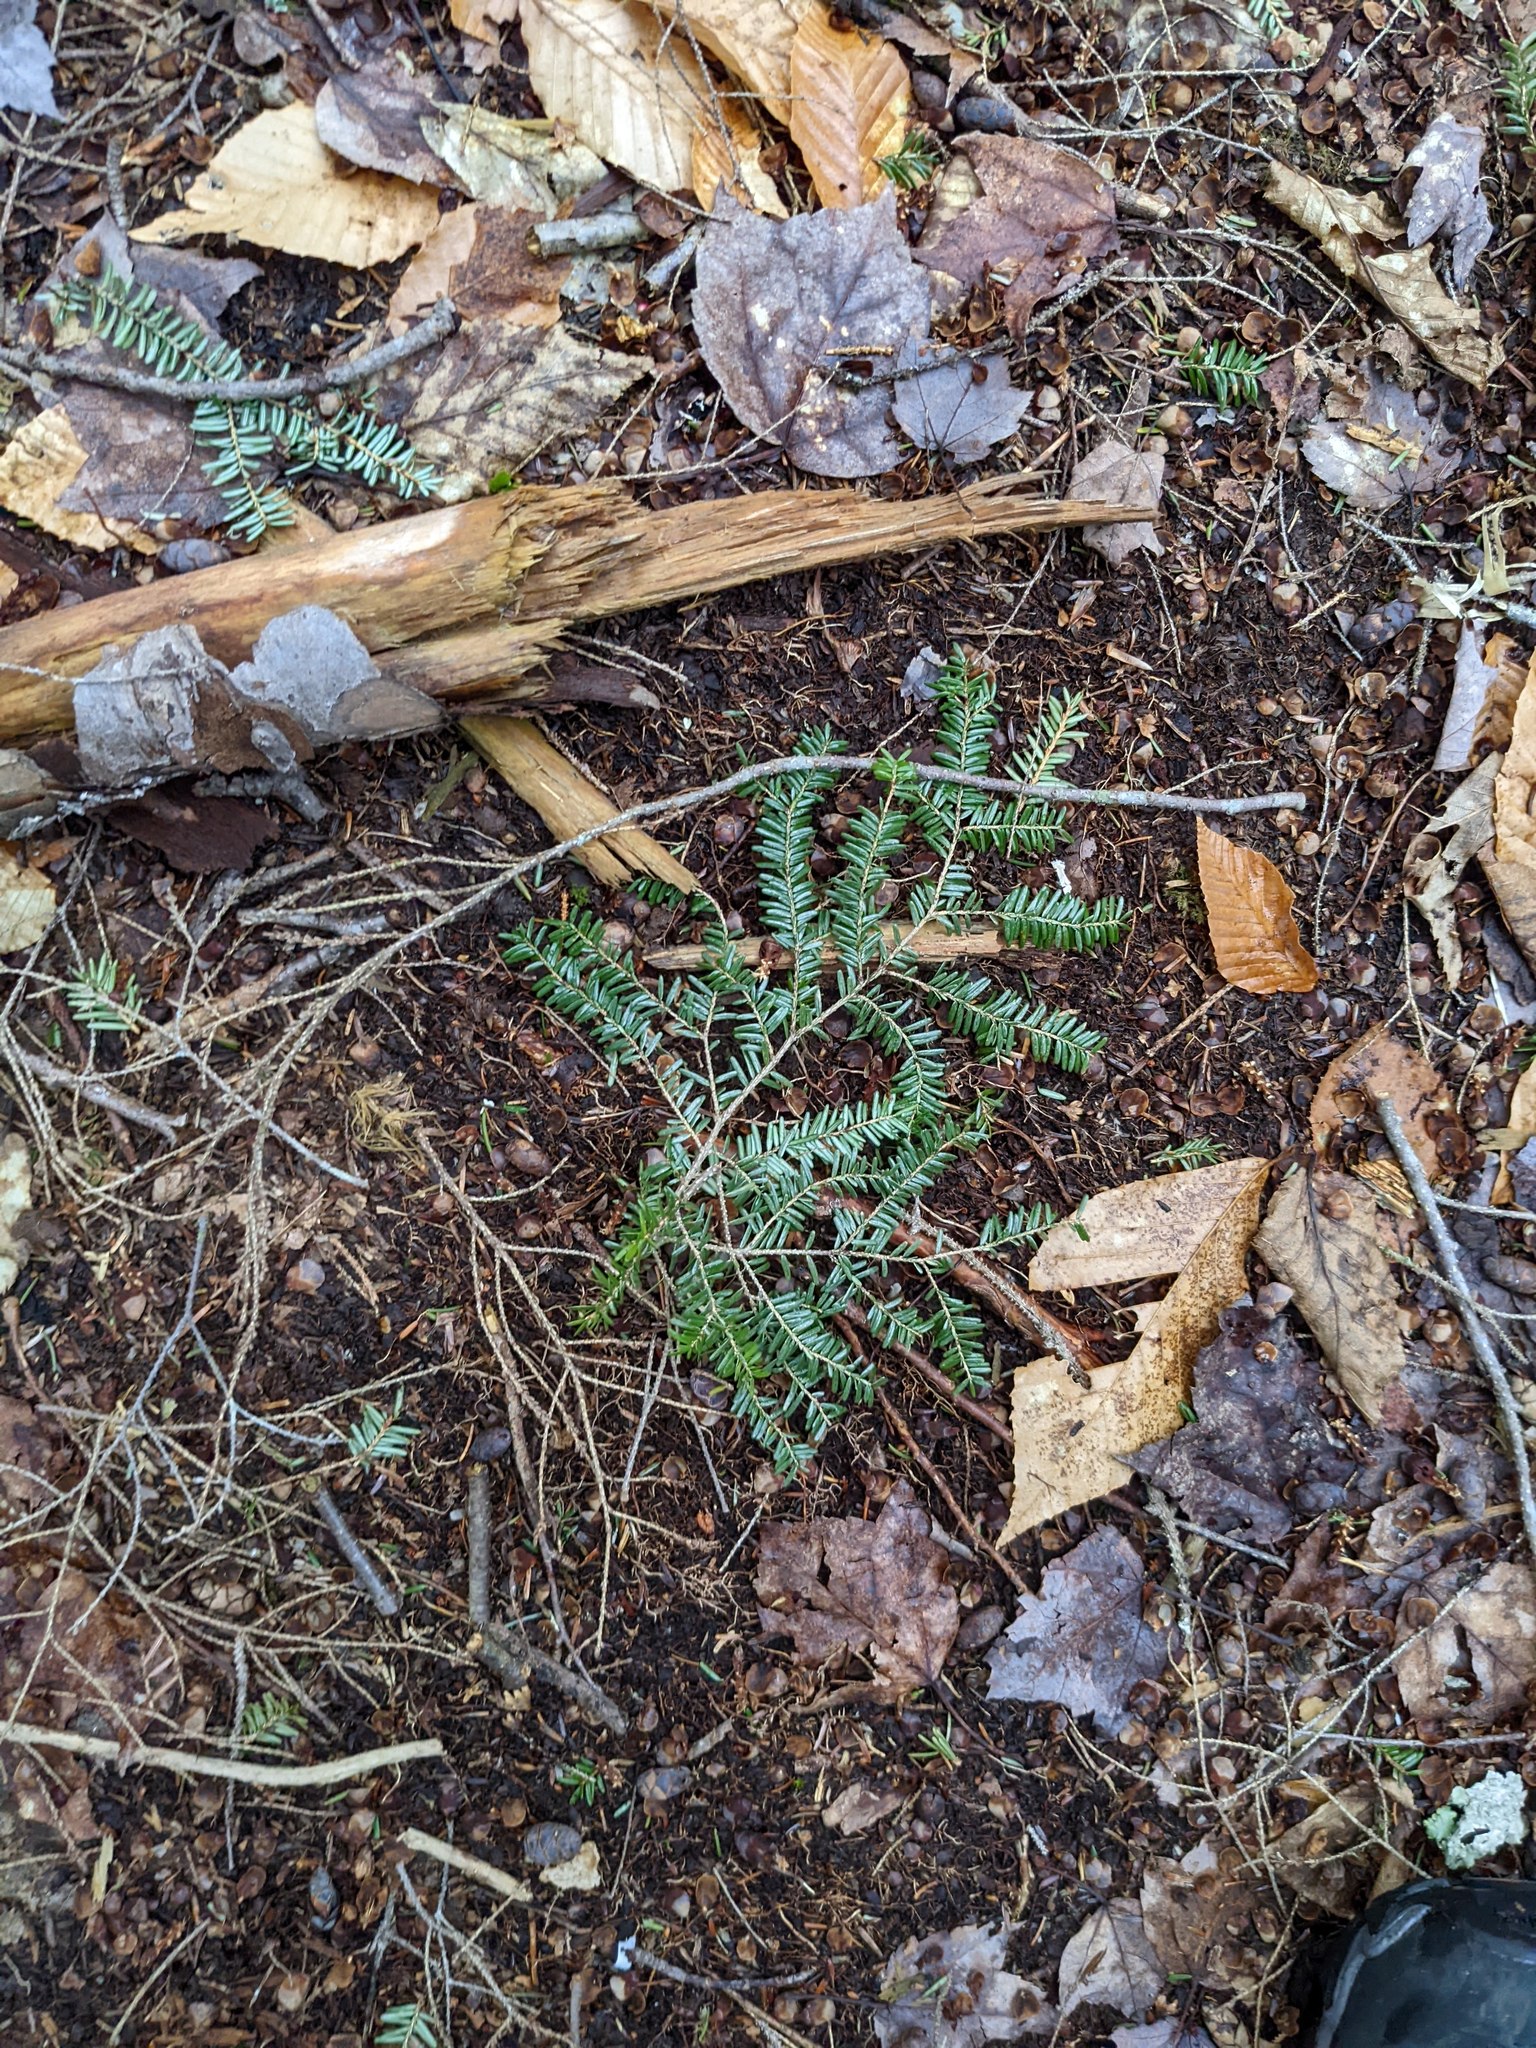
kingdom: Plantae
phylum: Tracheophyta
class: Pinopsida
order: Pinales
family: Pinaceae
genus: Tsuga
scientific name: Tsuga canadensis
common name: Eastern hemlock
